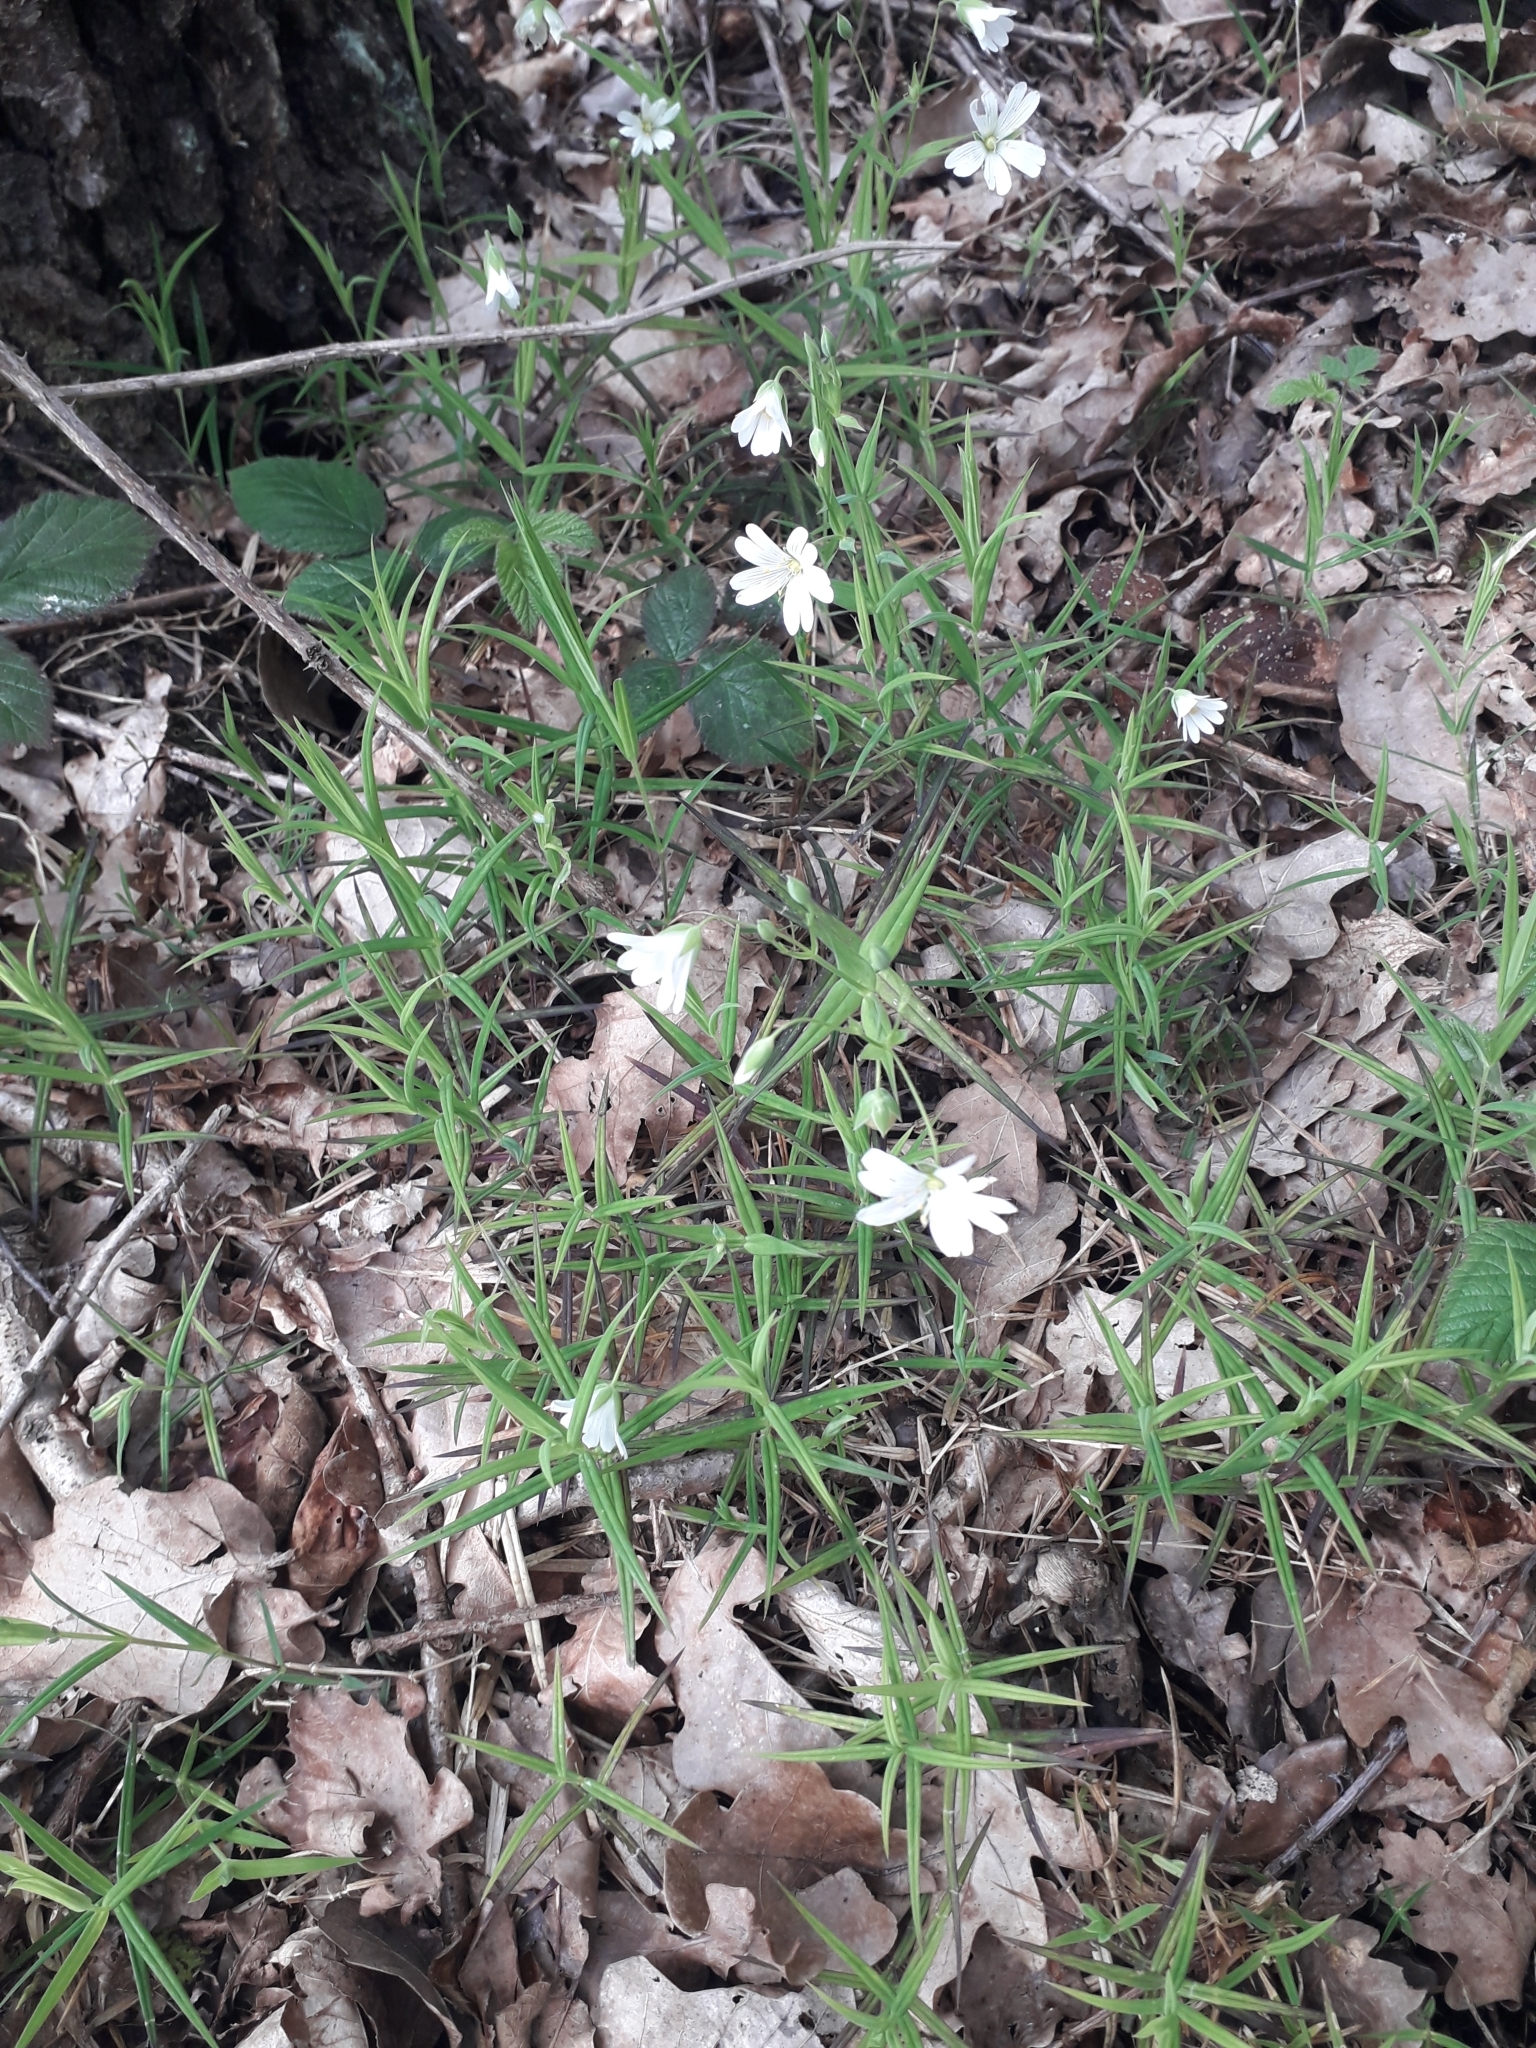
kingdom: Plantae
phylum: Tracheophyta
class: Magnoliopsida
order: Caryophyllales
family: Caryophyllaceae
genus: Rabelera
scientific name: Rabelera holostea
